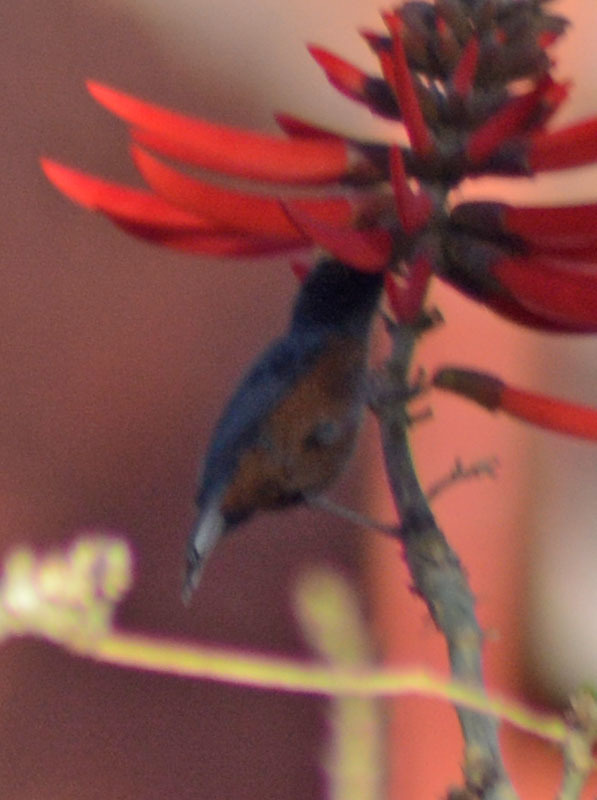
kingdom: Animalia
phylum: Chordata
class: Aves
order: Passeriformes
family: Thraupidae
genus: Diglossa
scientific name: Diglossa baritula
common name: Cinnamon-bellied flowerpiercer
